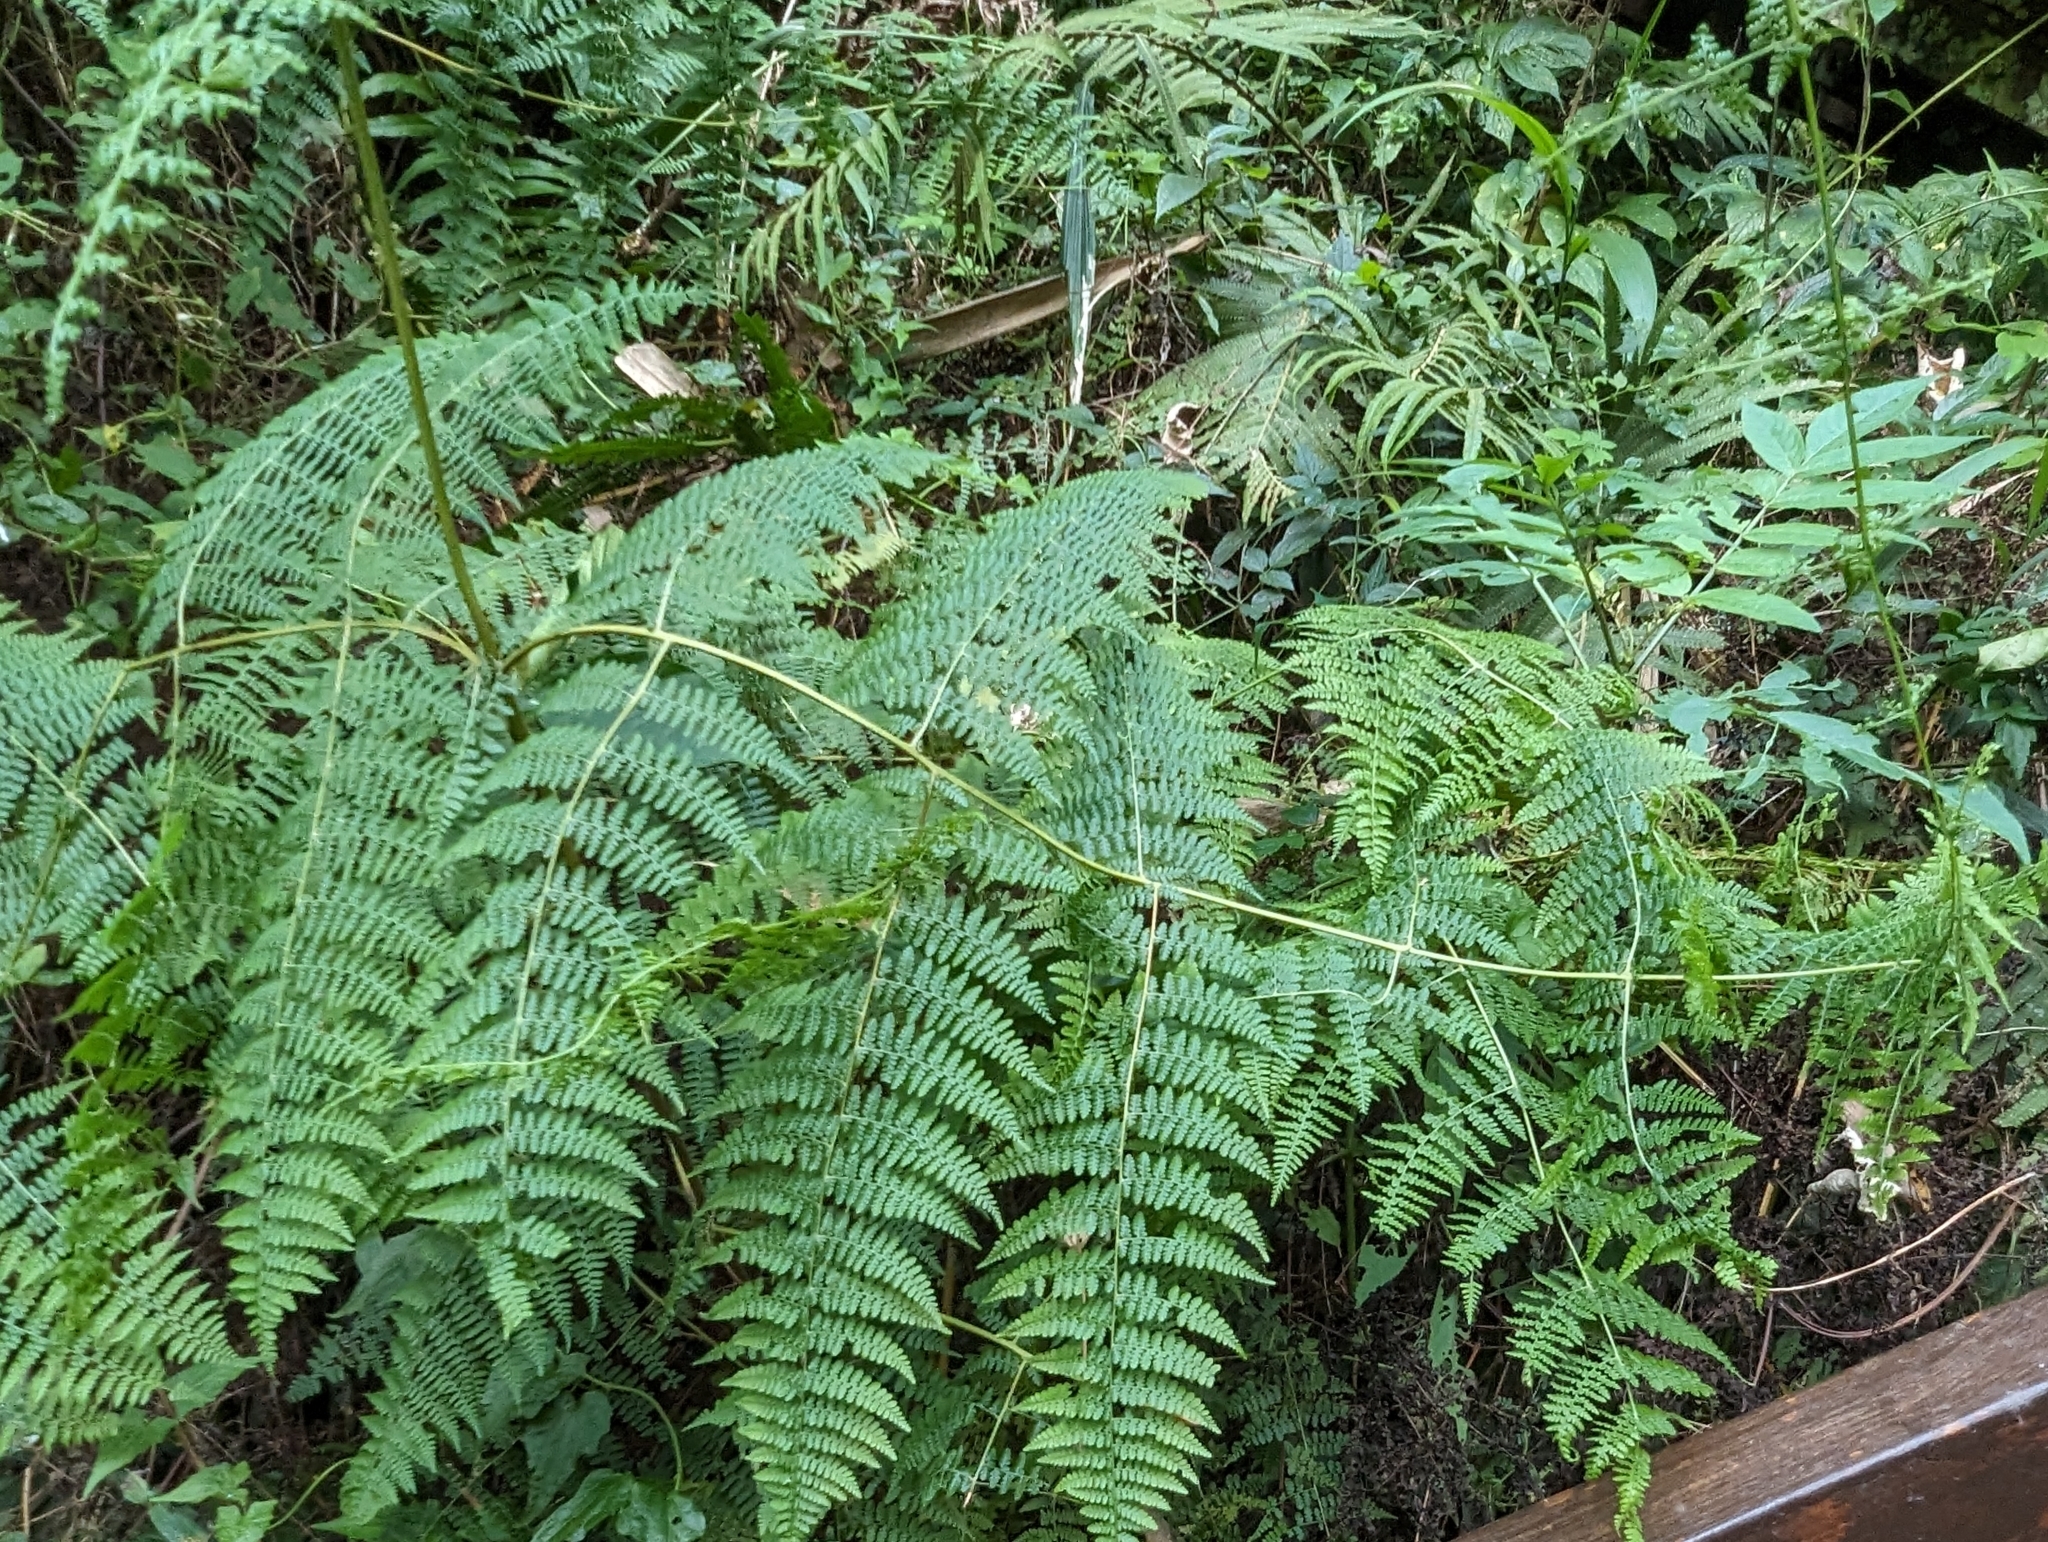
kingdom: Plantae
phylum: Tracheophyta
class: Polypodiopsida
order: Polypodiales
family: Dennstaedtiaceae
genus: Dennstaedtia
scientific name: Dennstaedtia scandens
